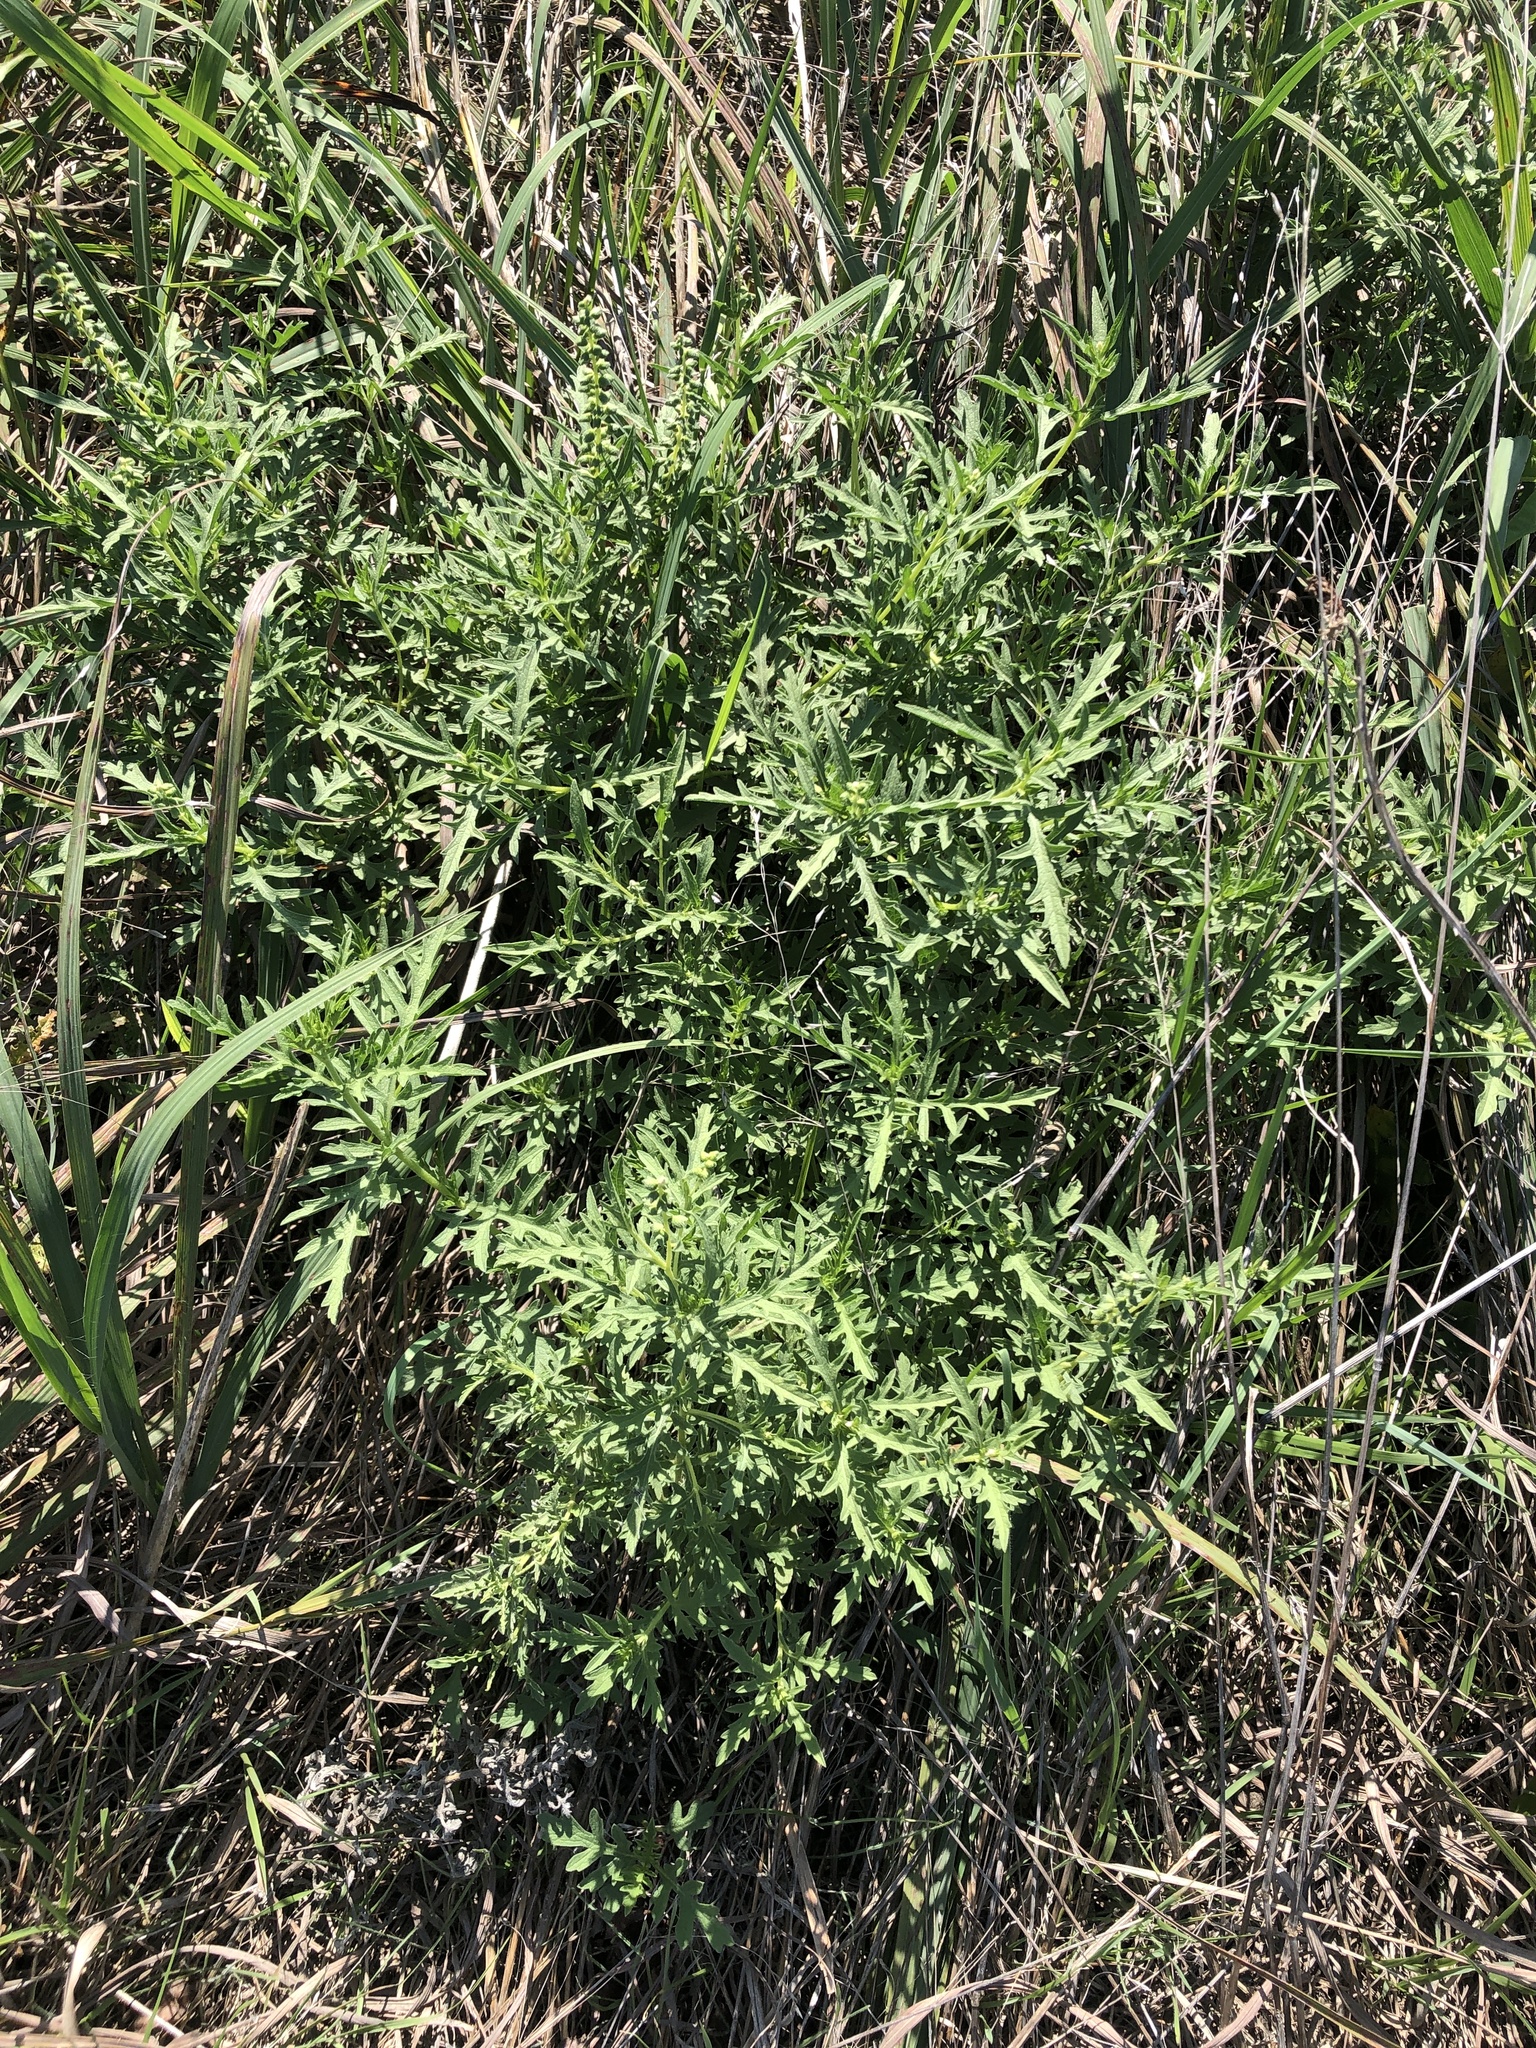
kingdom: Plantae
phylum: Tracheophyta
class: Magnoliopsida
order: Asterales
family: Asteraceae
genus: Ambrosia
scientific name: Ambrosia psilostachya
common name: Perennial ragweed
